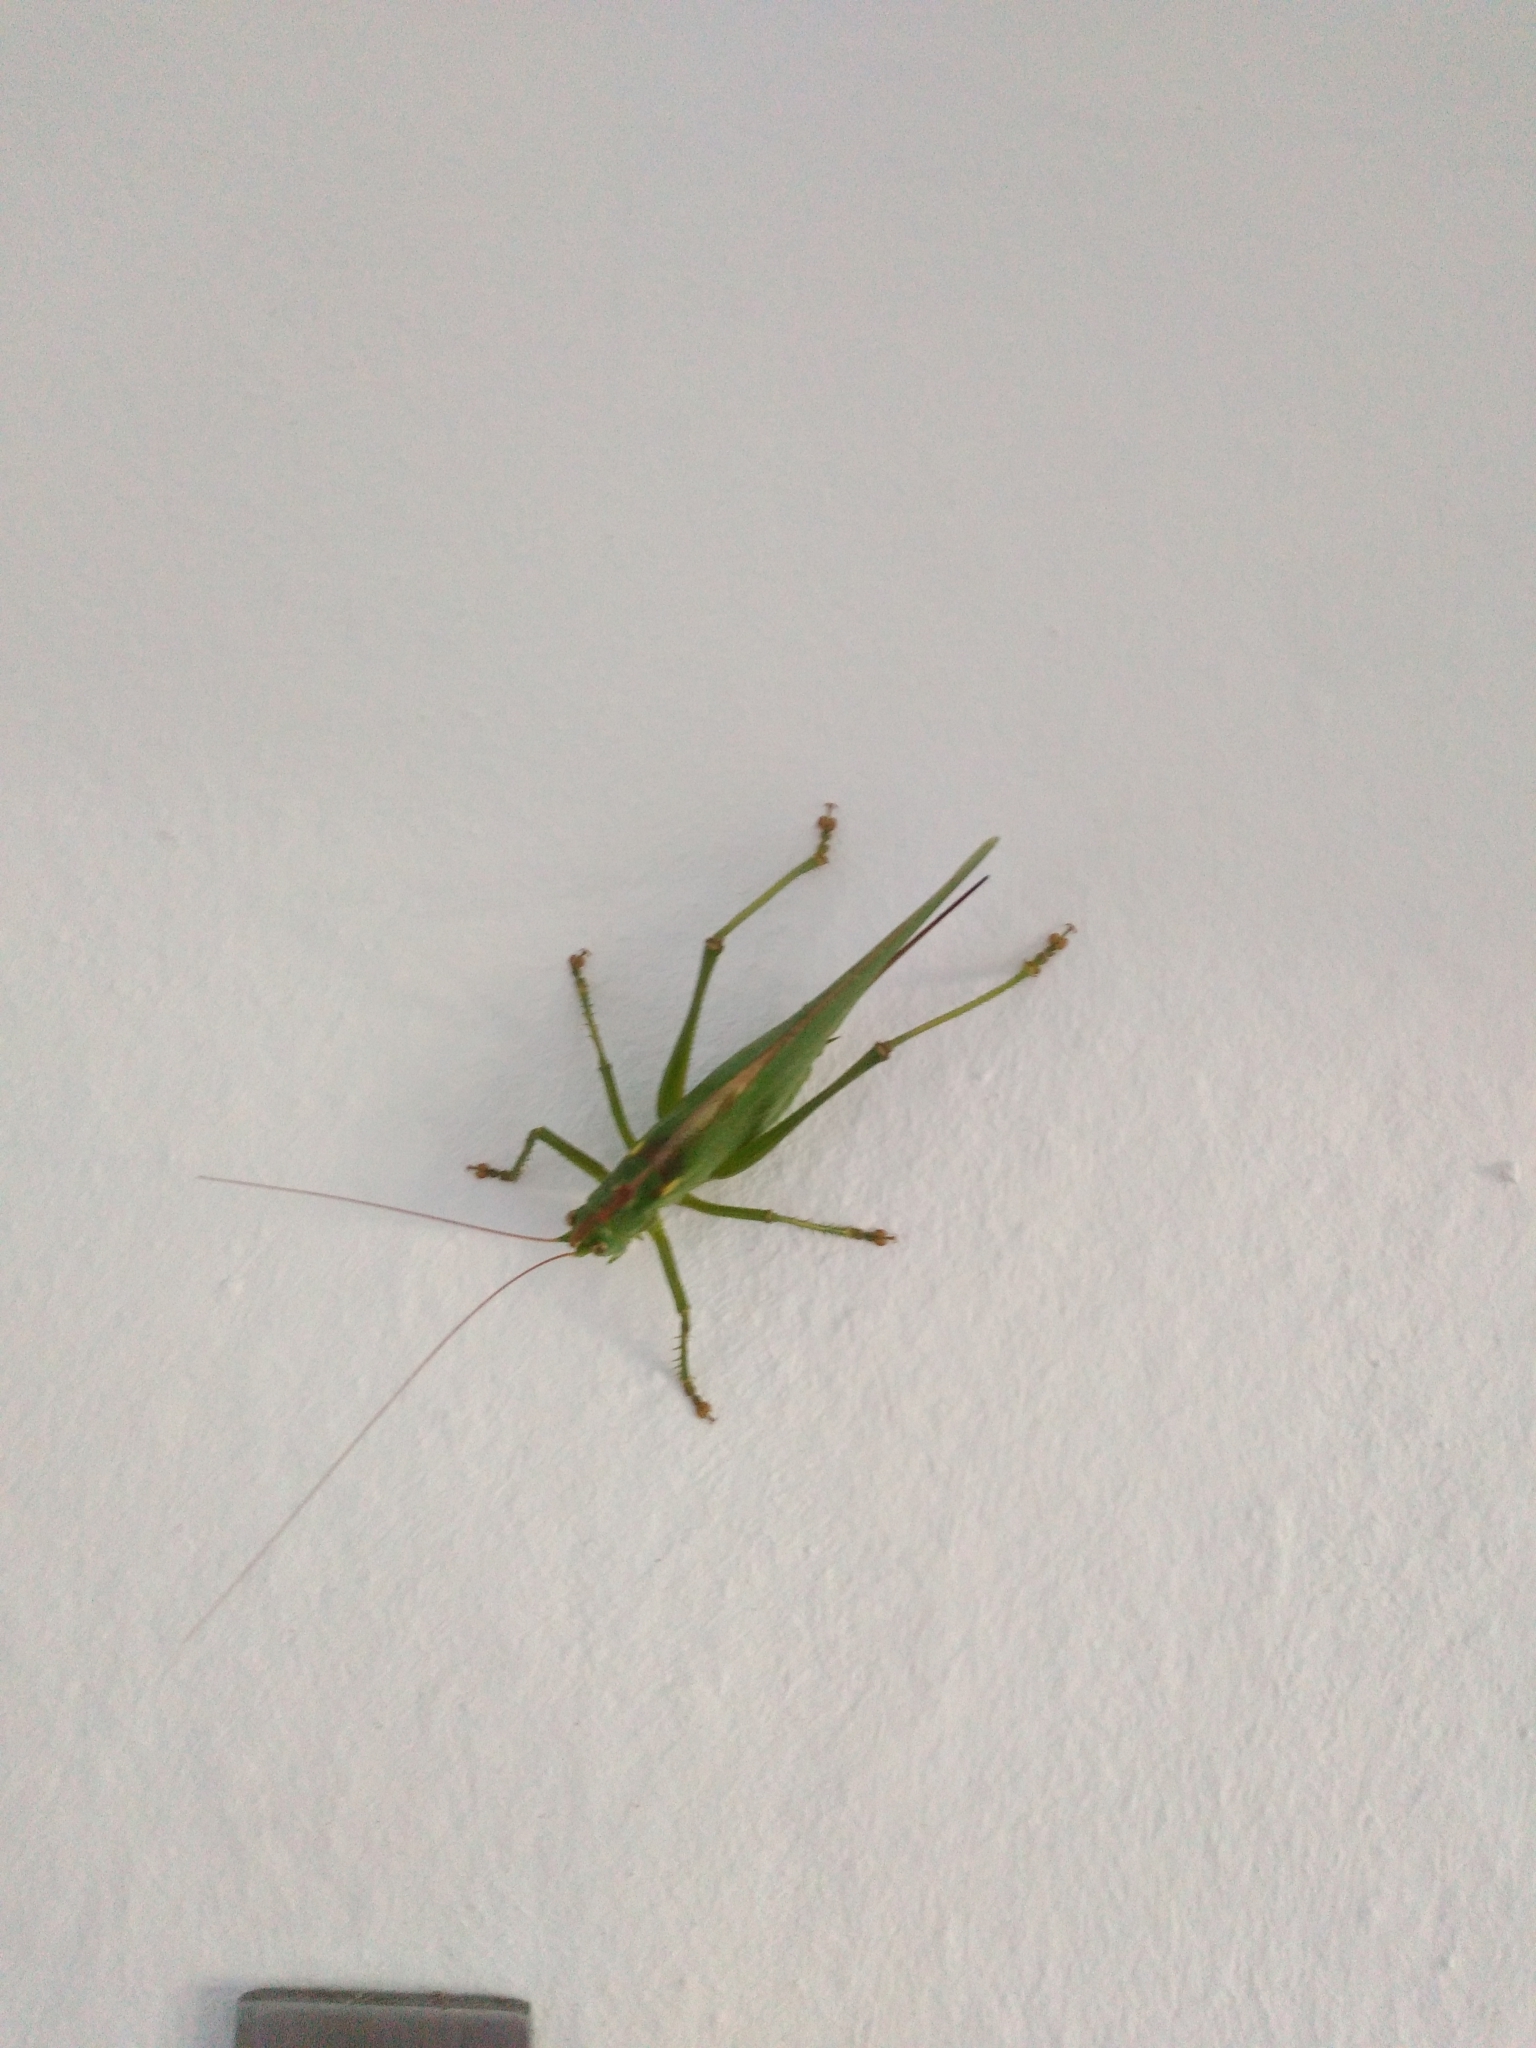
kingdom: Animalia
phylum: Arthropoda
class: Insecta
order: Orthoptera
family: Tettigoniidae
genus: Tettigonia
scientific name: Tettigonia viridissima
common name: Great green bush-cricket
